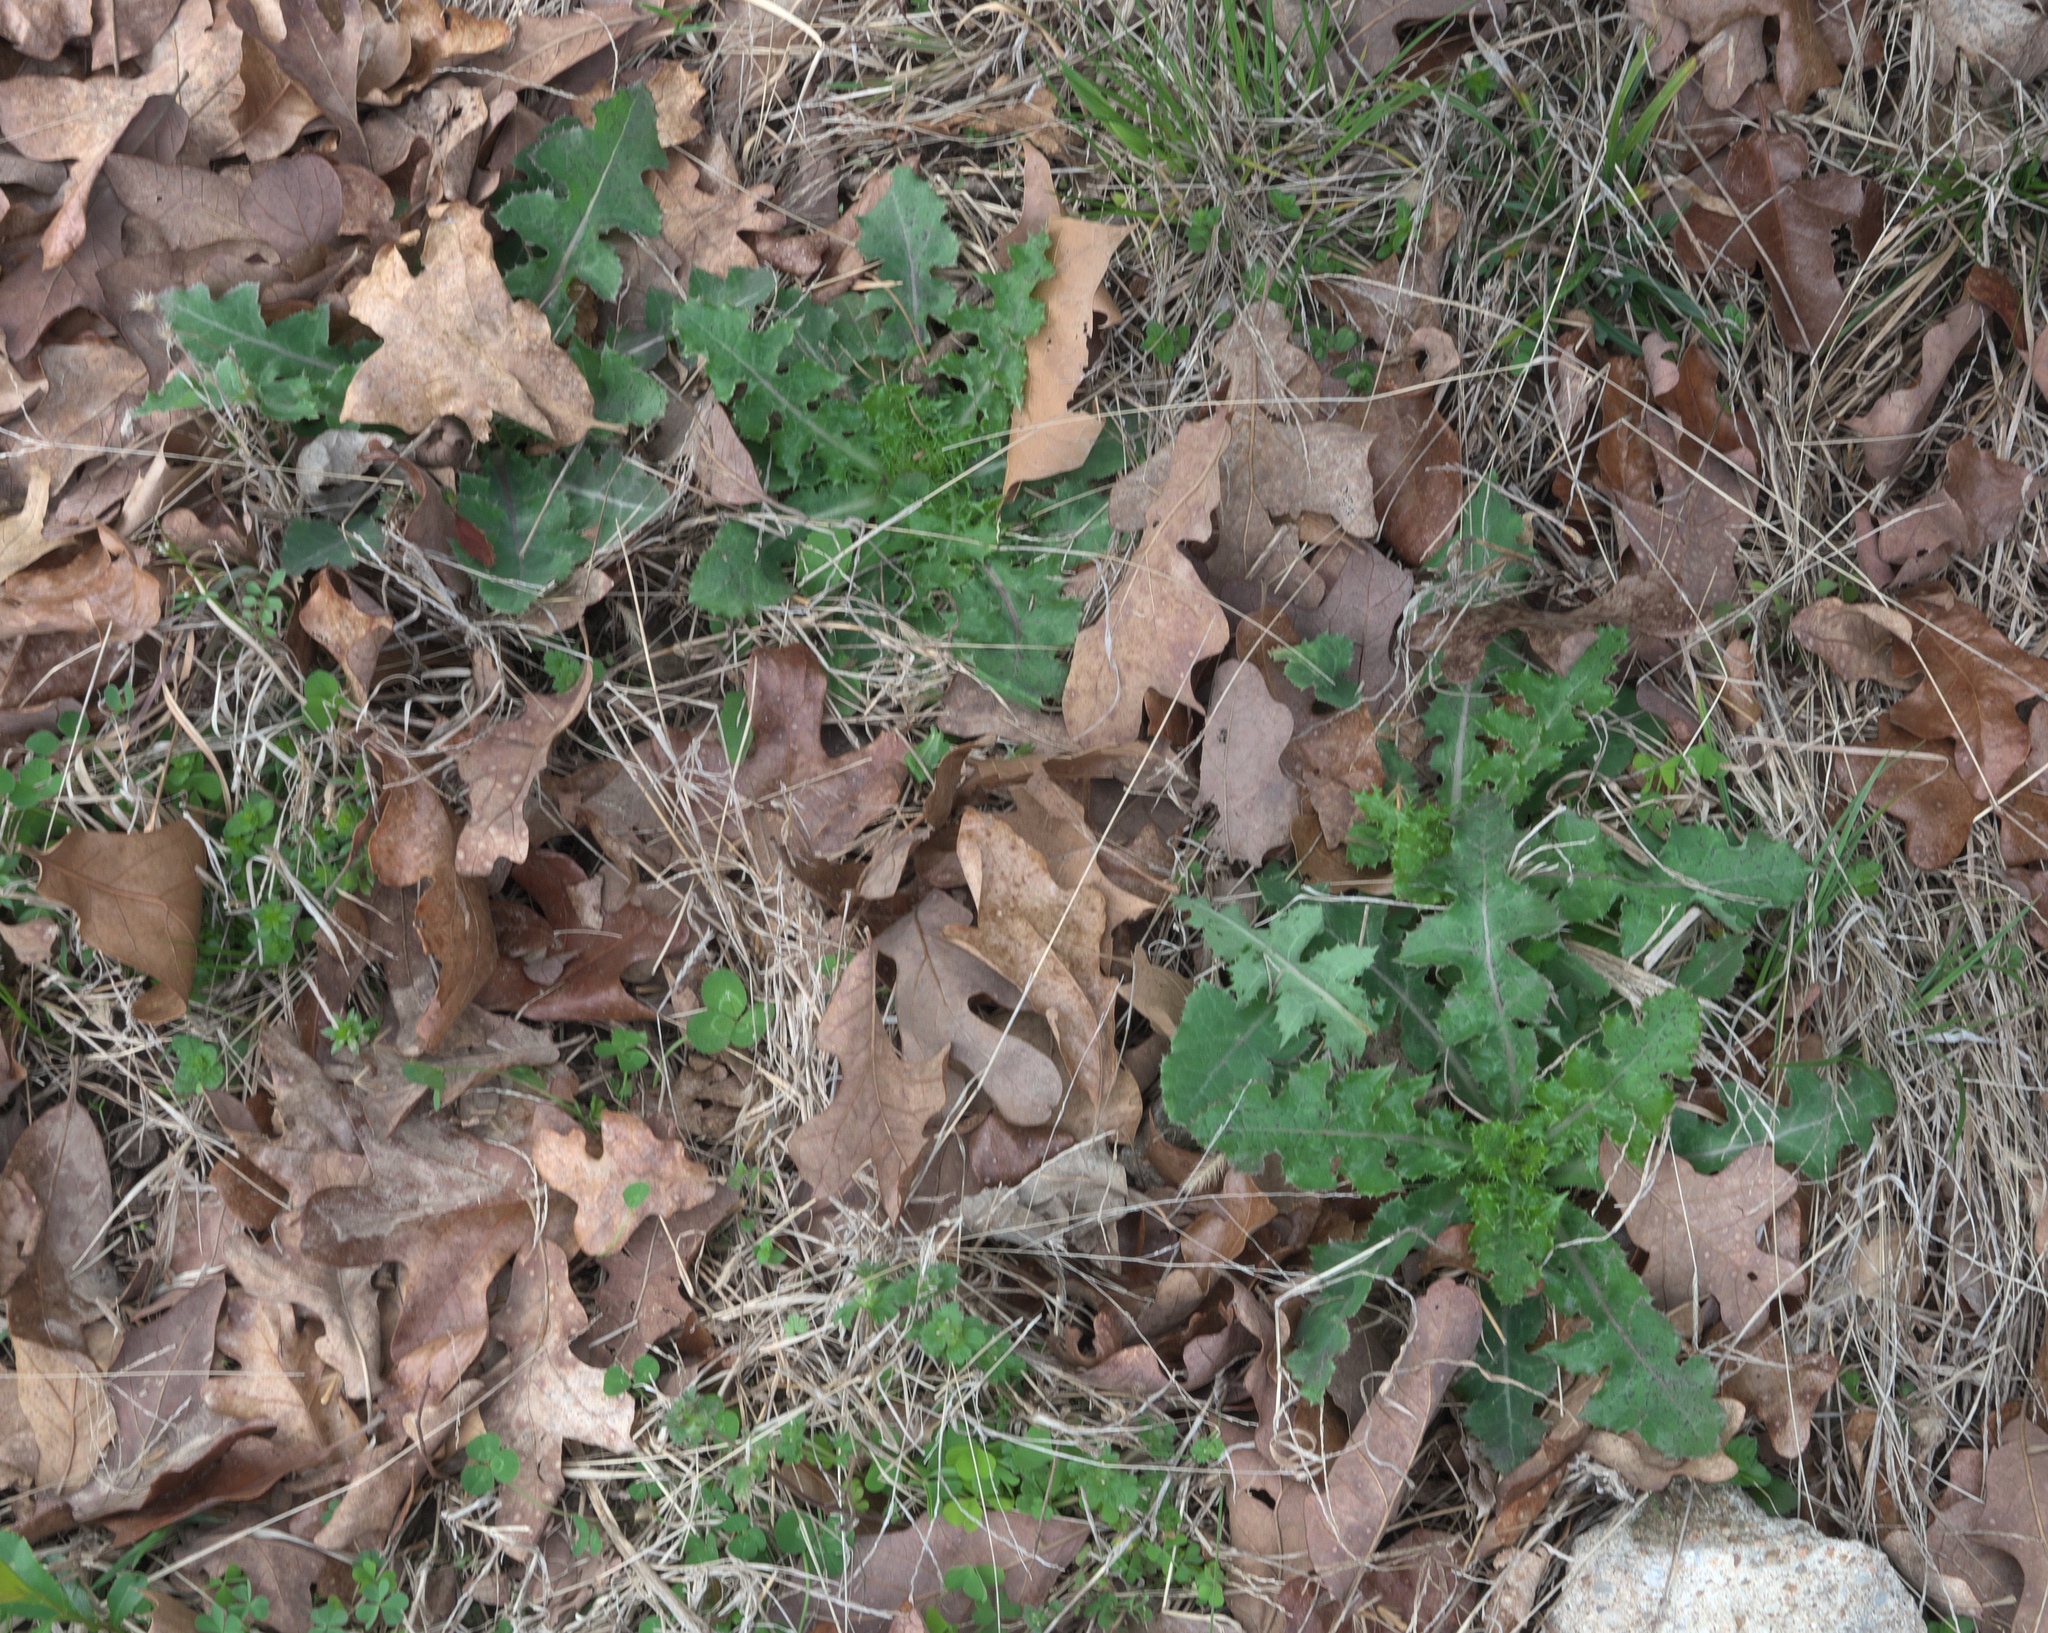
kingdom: Plantae
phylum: Tracheophyta
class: Magnoliopsida
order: Asterales
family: Asteraceae
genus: Sonchus
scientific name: Sonchus asper
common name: Prickly sow-thistle
